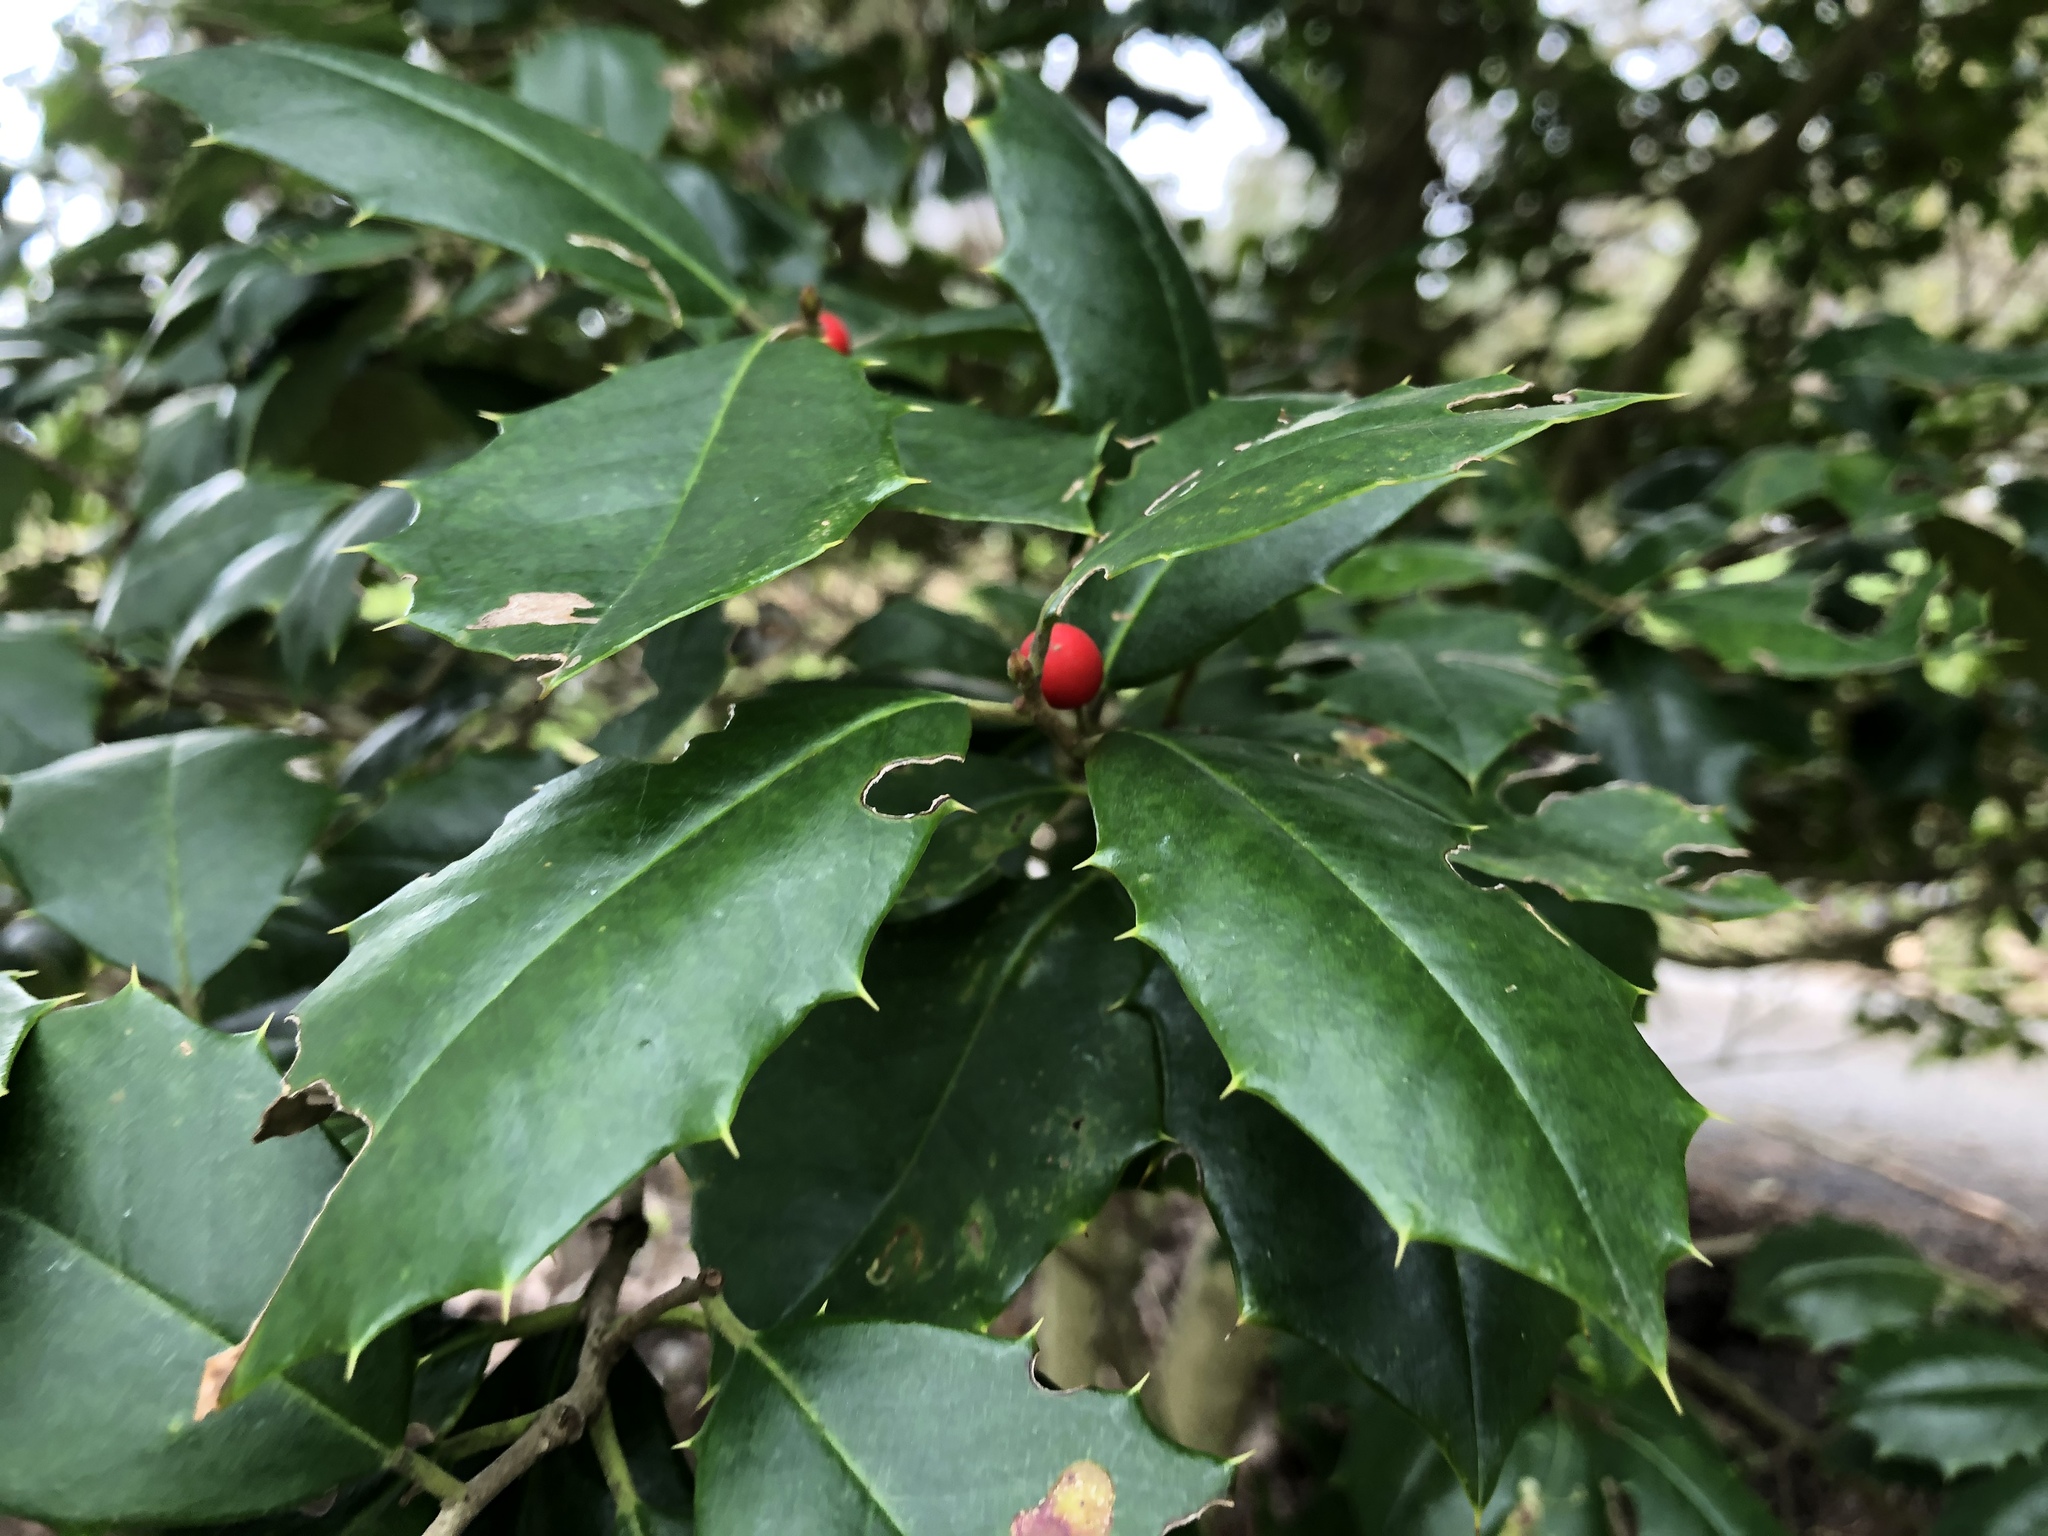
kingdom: Plantae
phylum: Tracheophyta
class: Magnoliopsida
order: Aquifoliales
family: Aquifoliaceae
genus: Ilex
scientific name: Ilex opaca
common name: American holly
